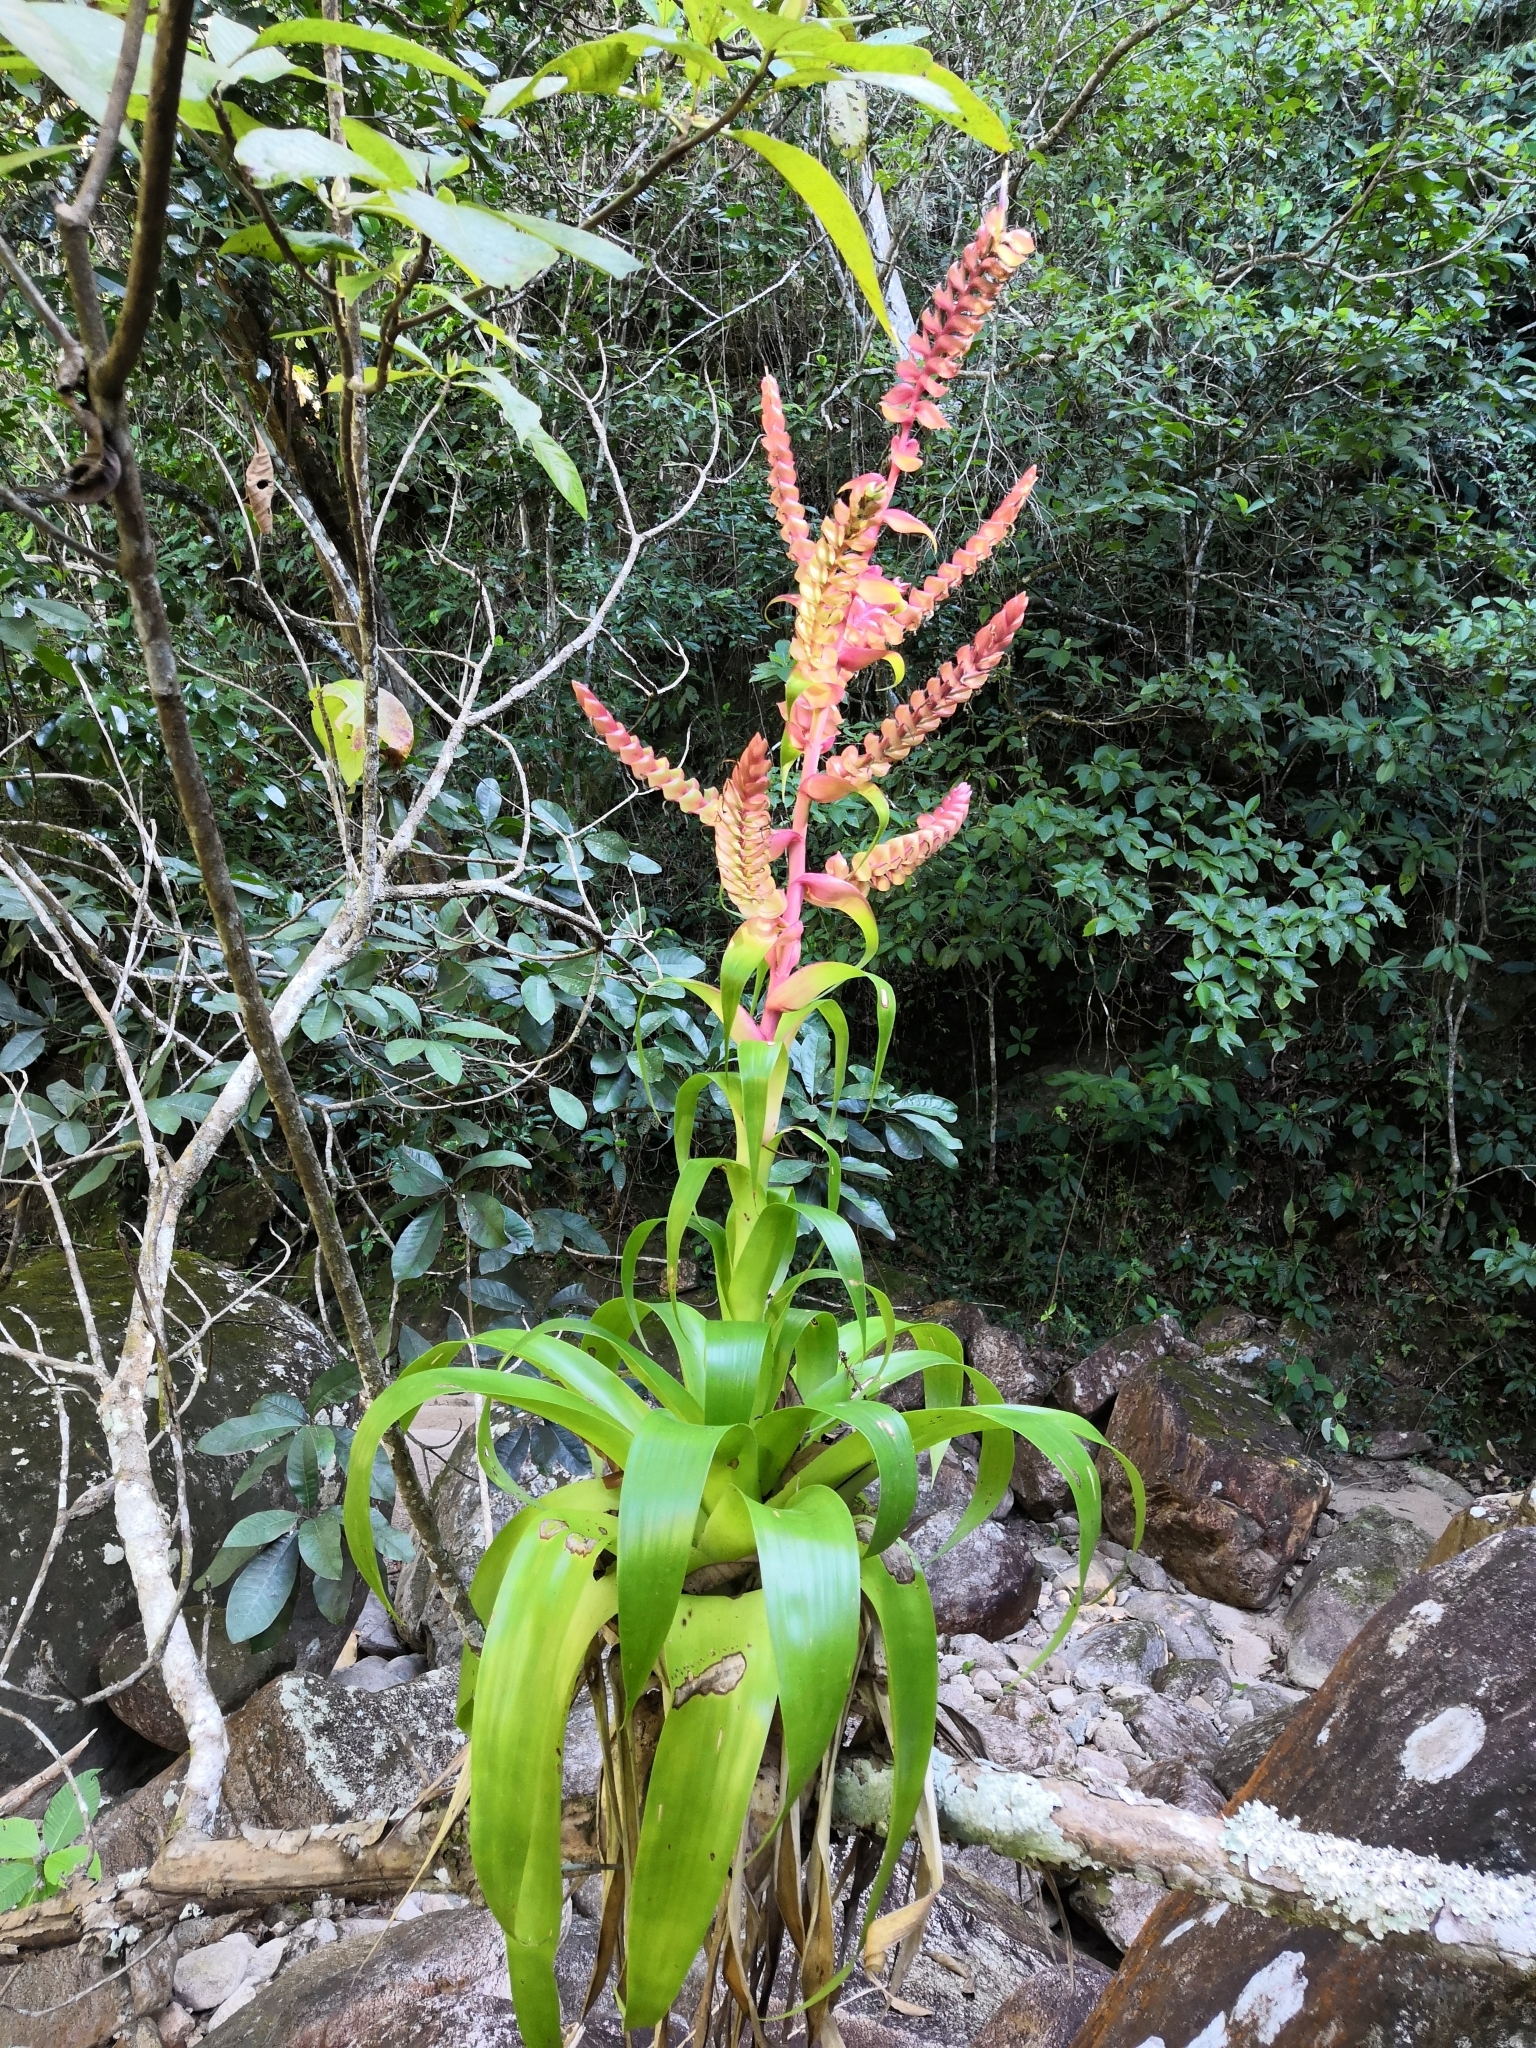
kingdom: Plantae
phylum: Tracheophyta
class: Liliopsida
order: Poales
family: Bromeliaceae
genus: Tillandsia
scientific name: Tillandsia mooreana
